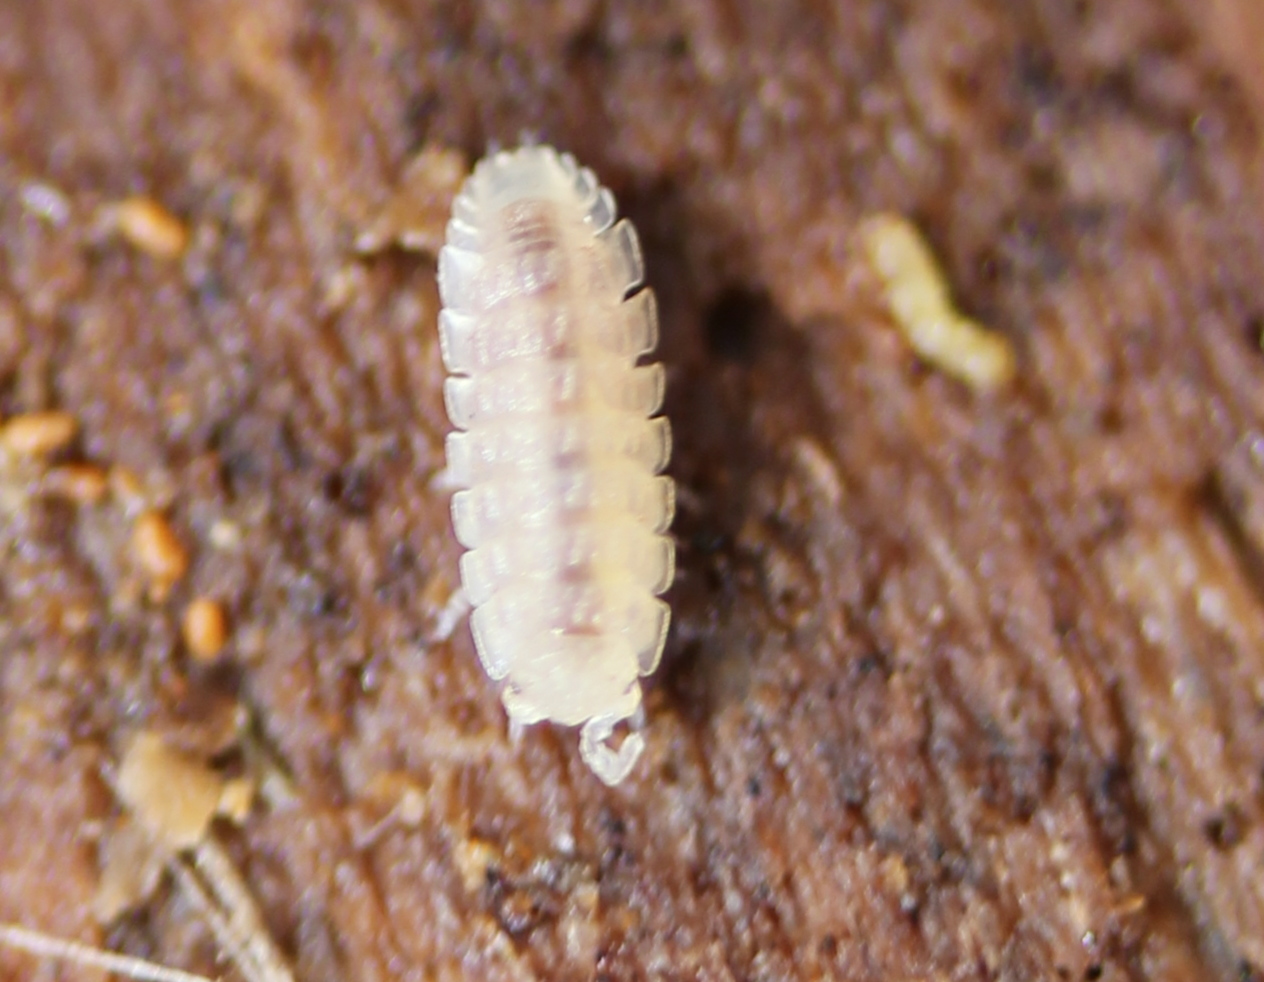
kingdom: Animalia
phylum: Arthropoda
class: Malacostraca
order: Isopoda
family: Trichoniscidae
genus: Haplophthalmus
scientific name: Haplophthalmus danicus
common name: Pillbug
